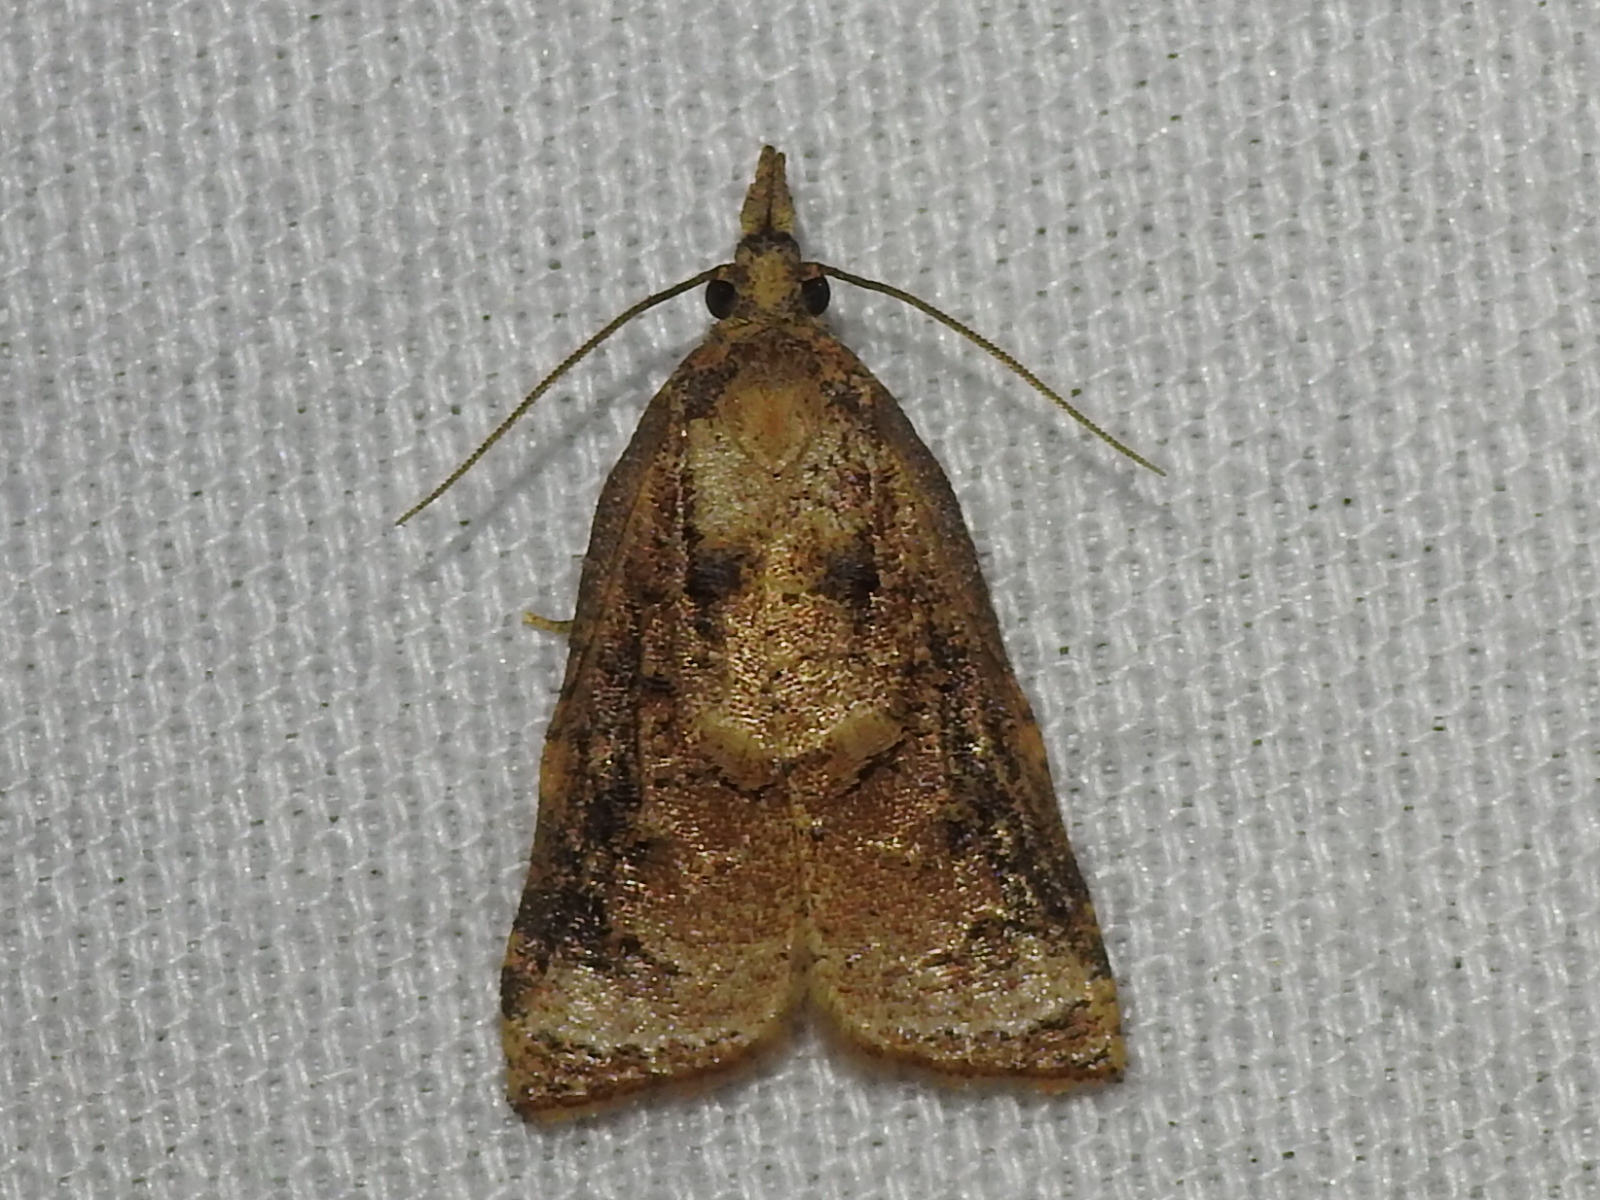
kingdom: Animalia
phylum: Arthropoda
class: Insecta
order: Lepidoptera
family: Tortricidae
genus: Platynota
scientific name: Platynota rostrana
